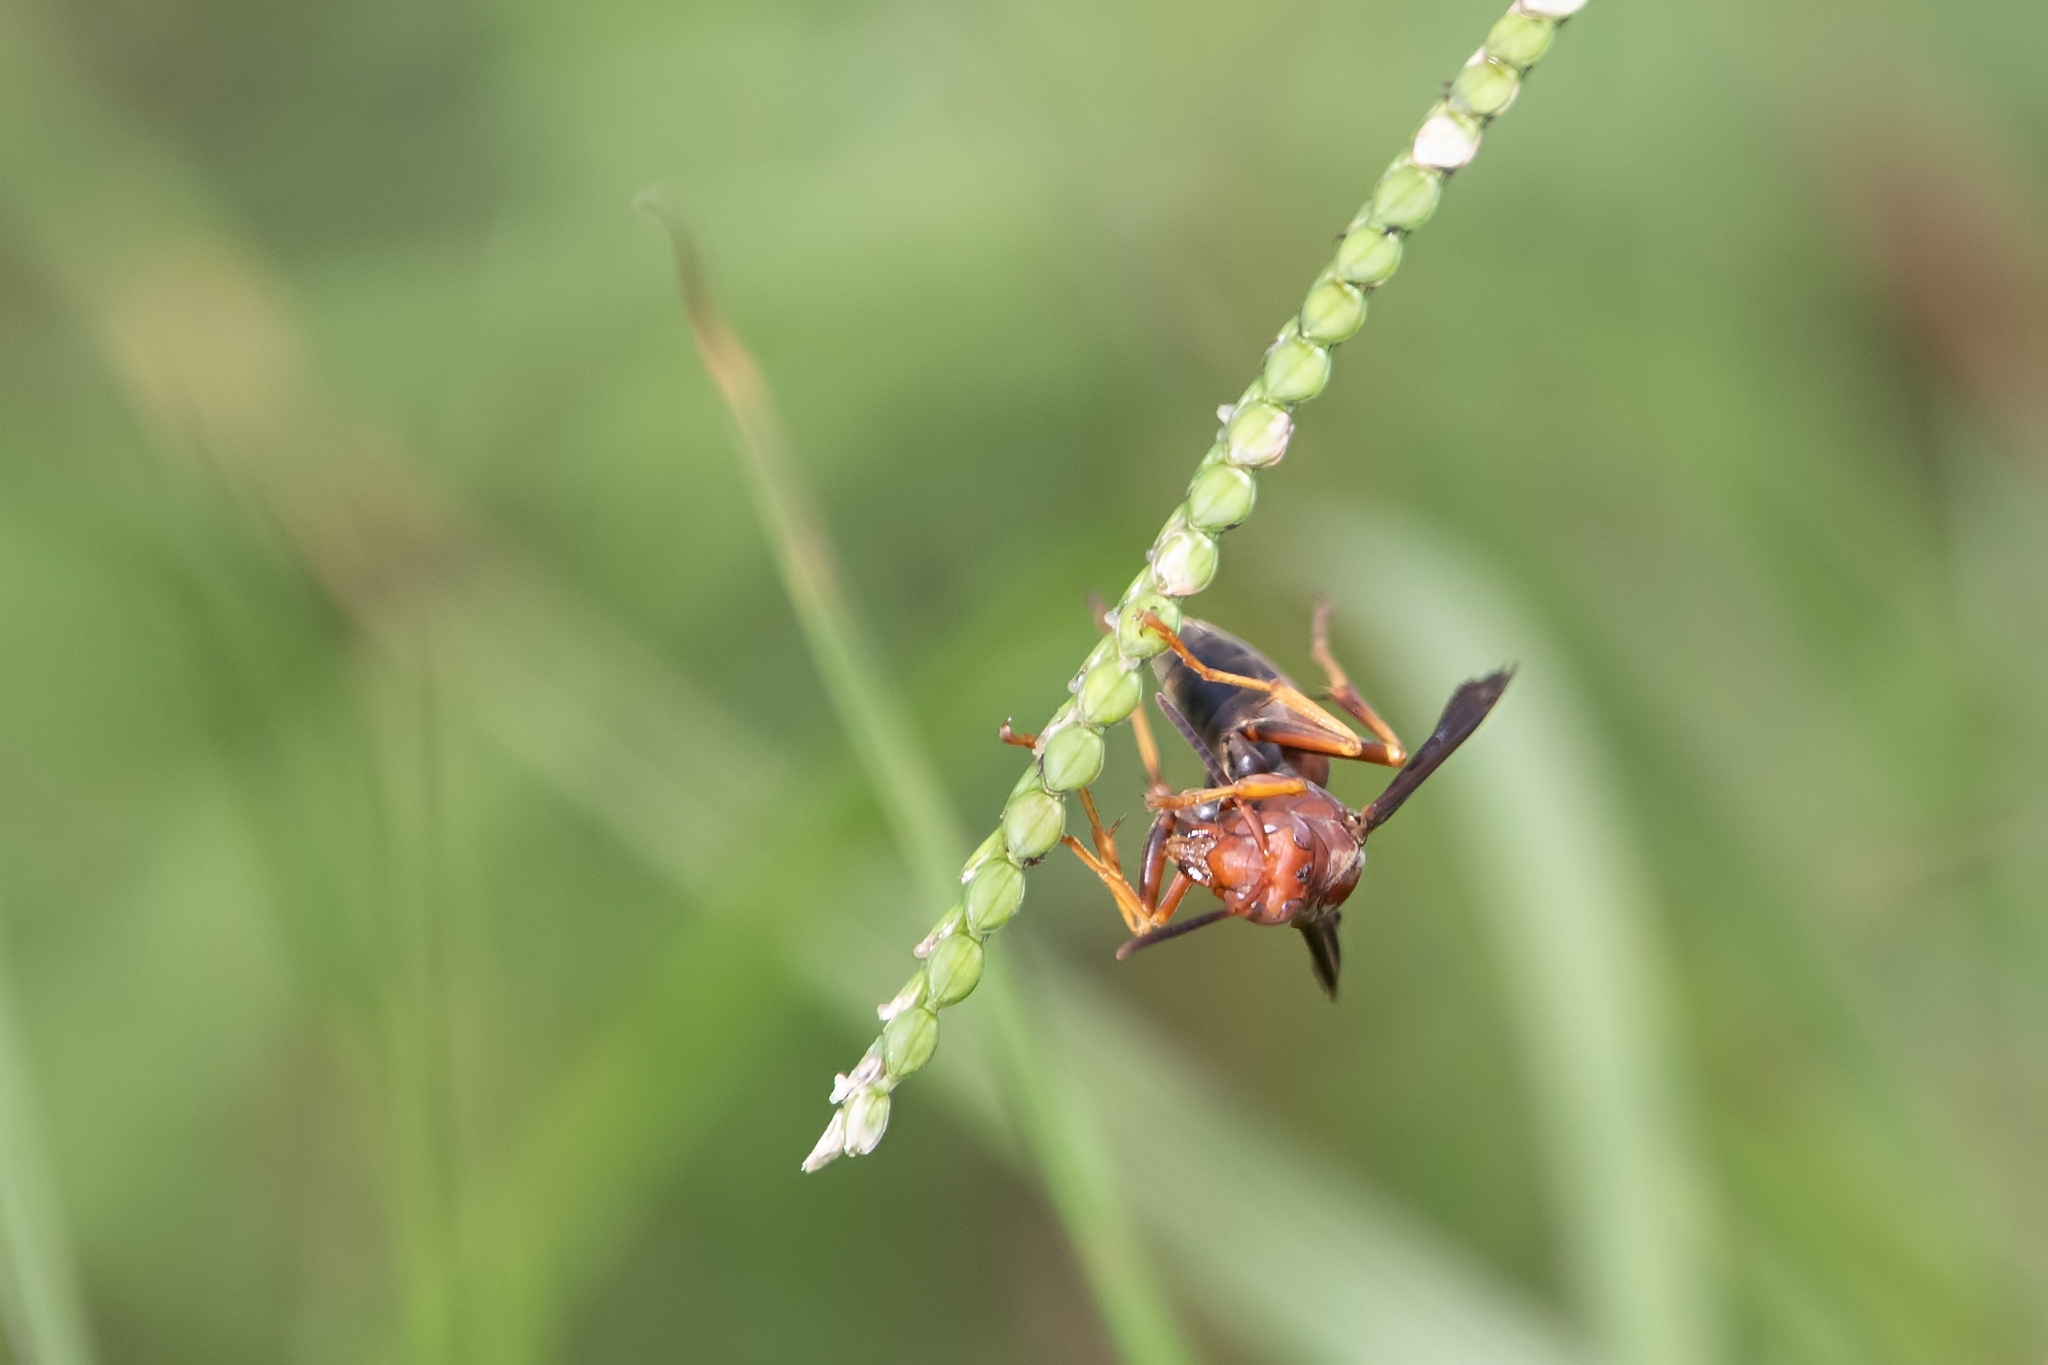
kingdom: Animalia
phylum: Arthropoda
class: Insecta
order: Hymenoptera
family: Eumenidae
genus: Polistes
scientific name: Polistes metricus
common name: Metric paper wasp
